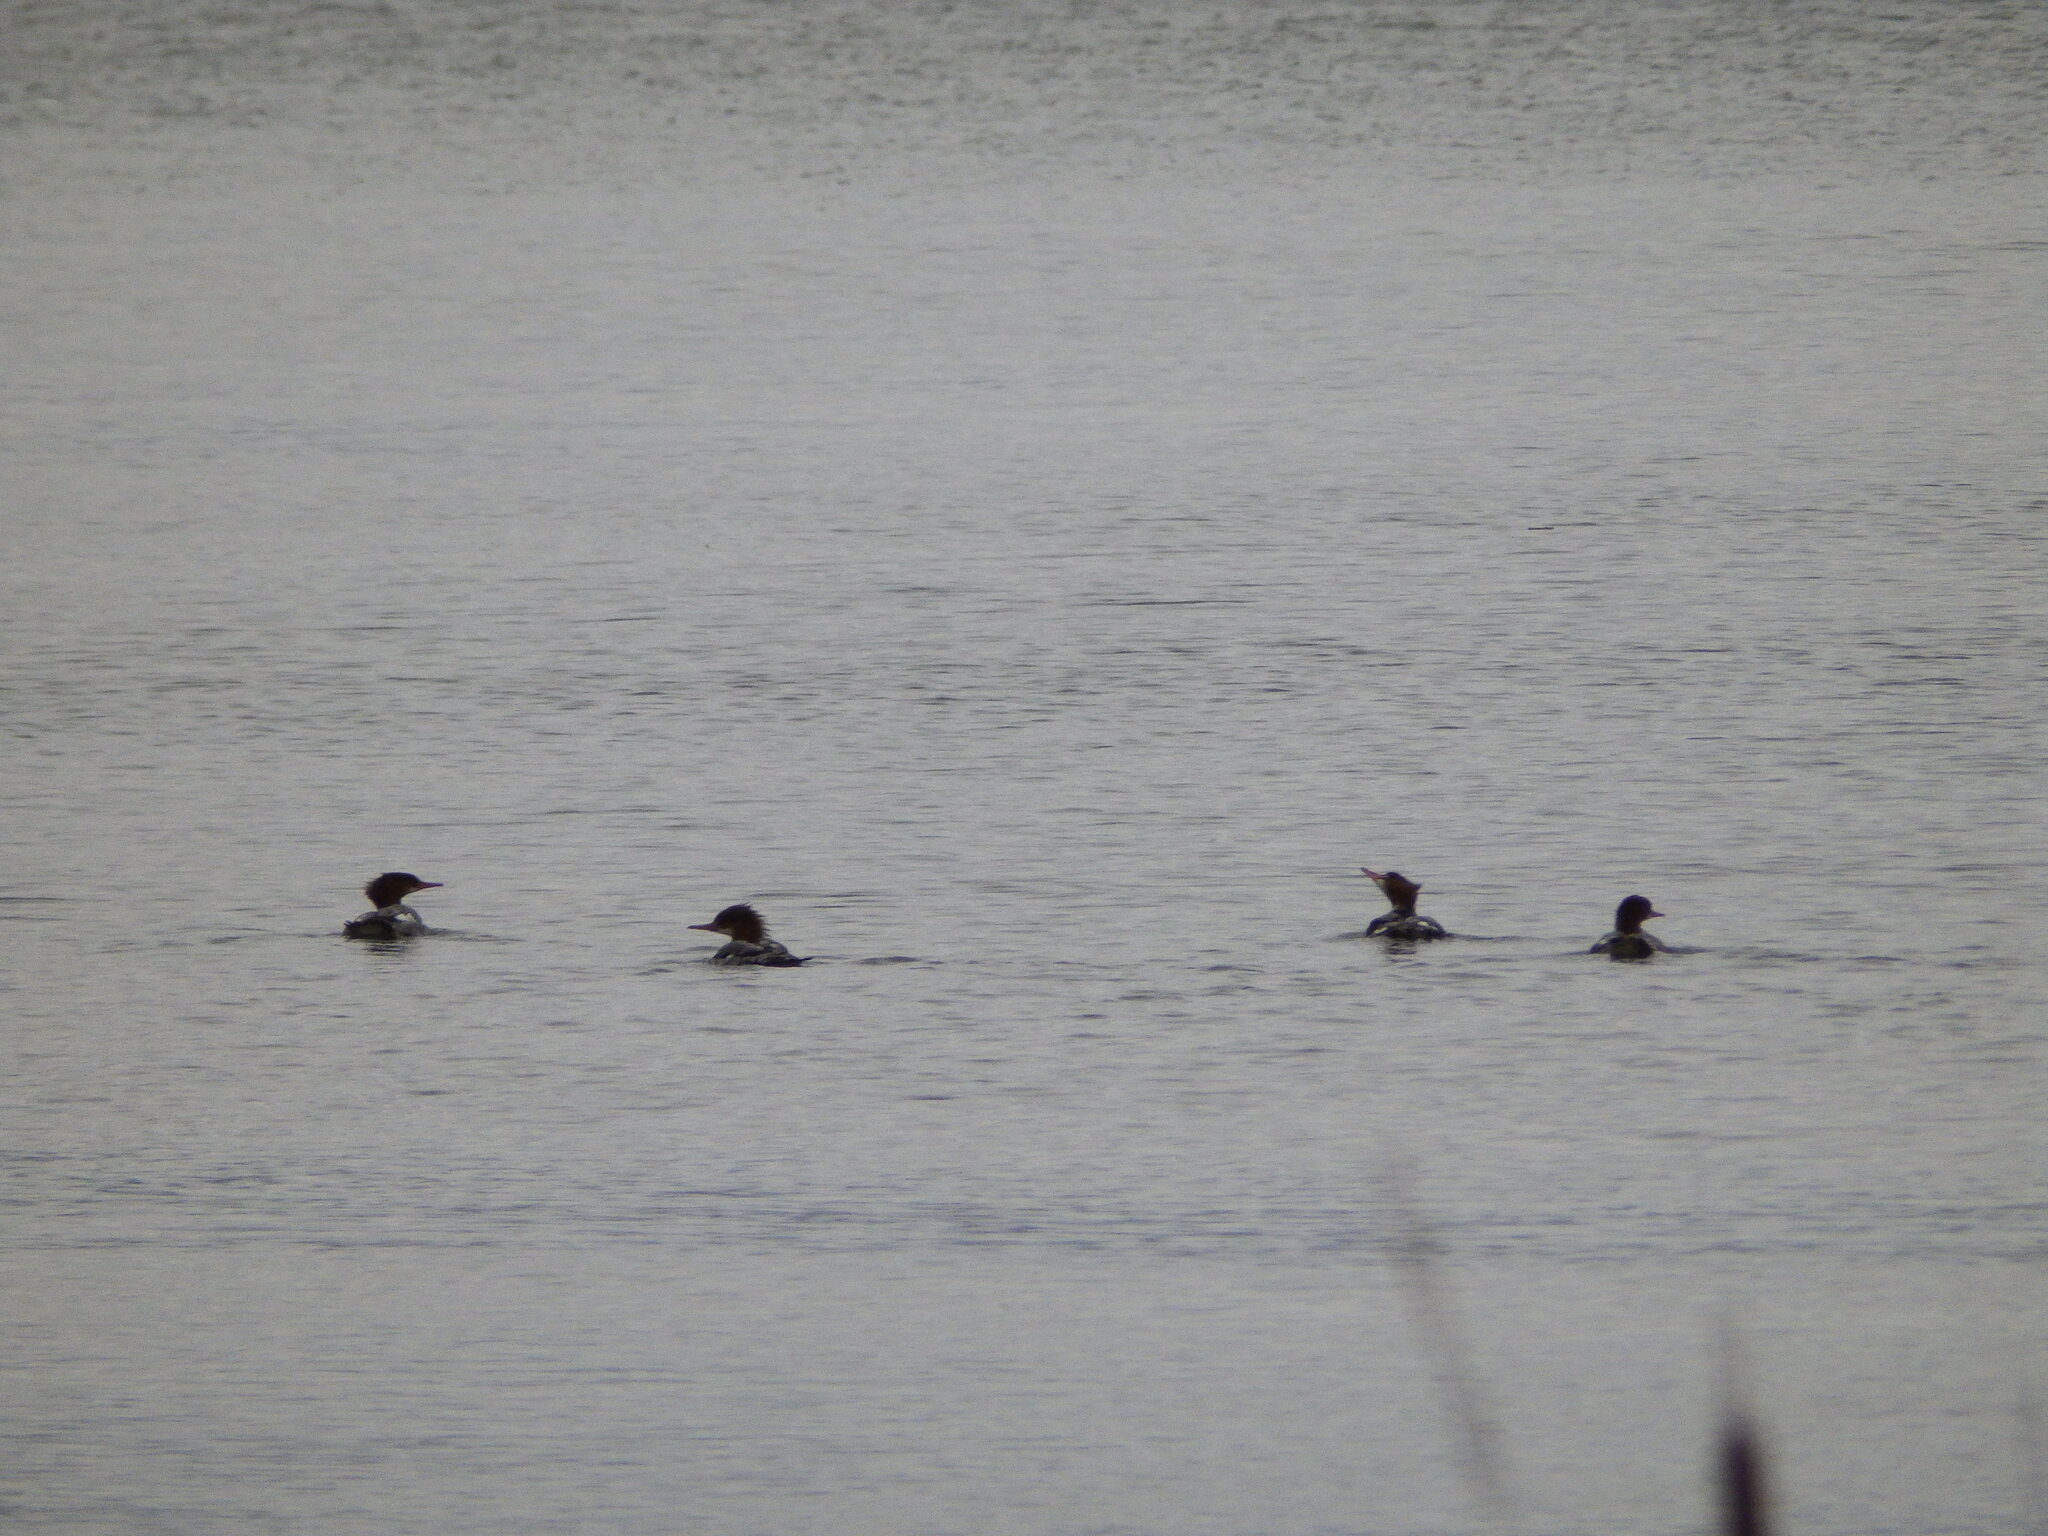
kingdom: Animalia
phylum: Chordata
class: Aves
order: Anseriformes
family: Anatidae
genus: Mergus
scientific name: Mergus merganser
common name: Common merganser
